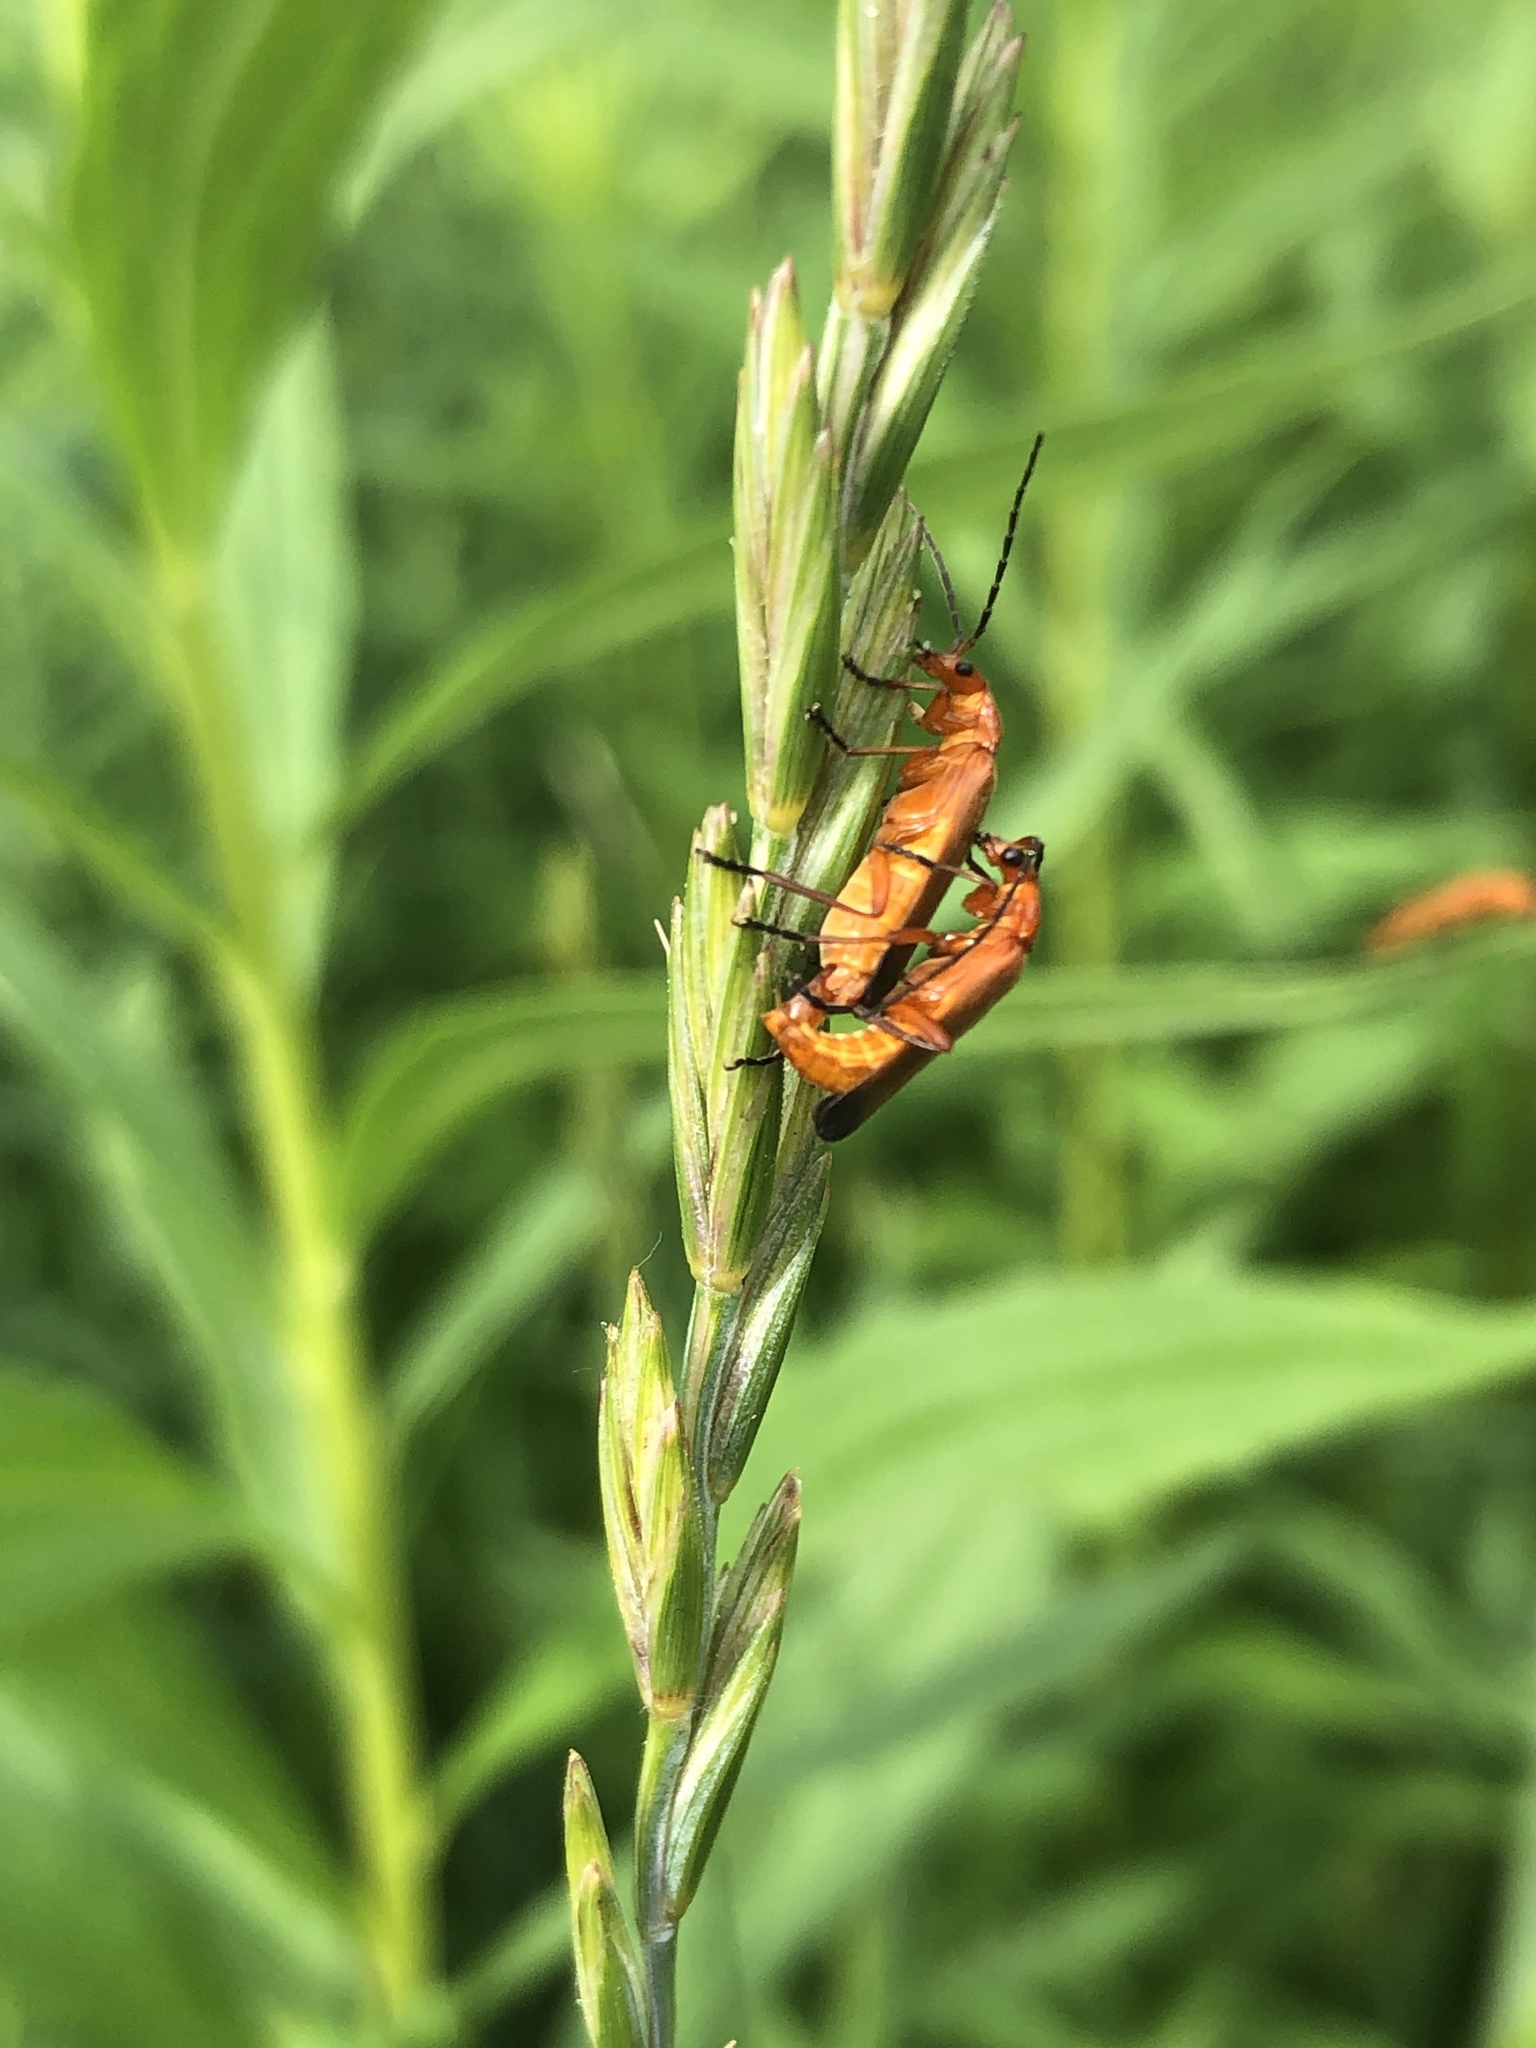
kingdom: Animalia
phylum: Arthropoda
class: Insecta
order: Coleoptera
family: Cantharidae
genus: Rhagonycha
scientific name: Rhagonycha fulva
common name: Common red soldier beetle
